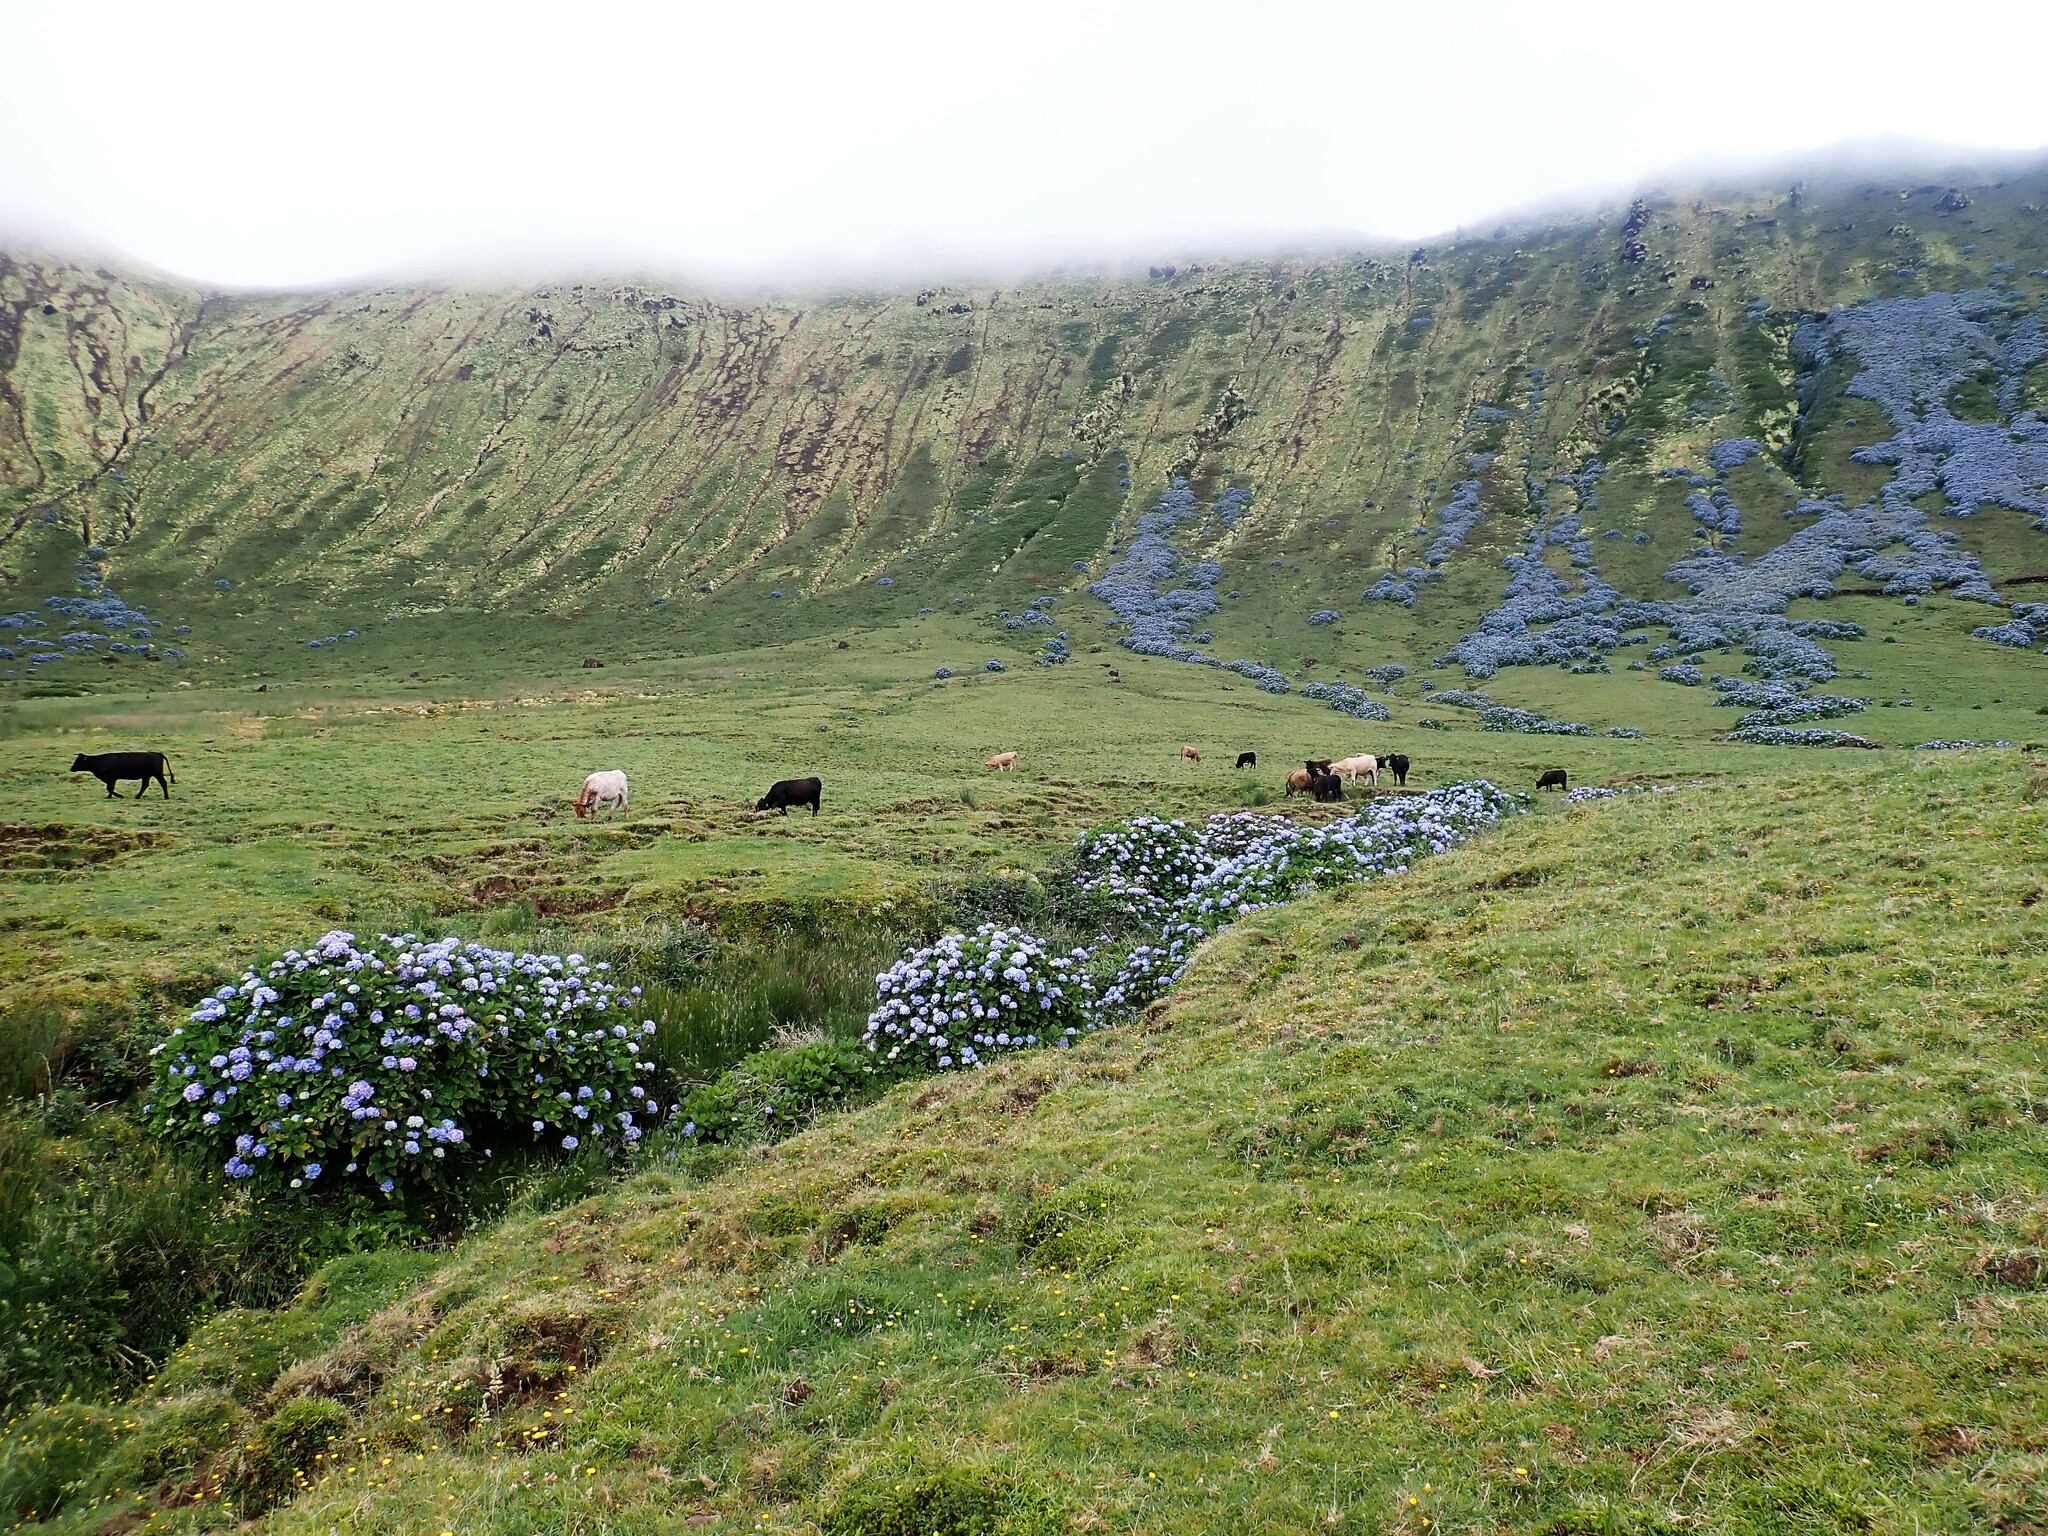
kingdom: Plantae
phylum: Tracheophyta
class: Magnoliopsida
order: Cornales
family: Hydrangeaceae
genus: Hydrangea
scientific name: Hydrangea macrophylla
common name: Hydrangea
